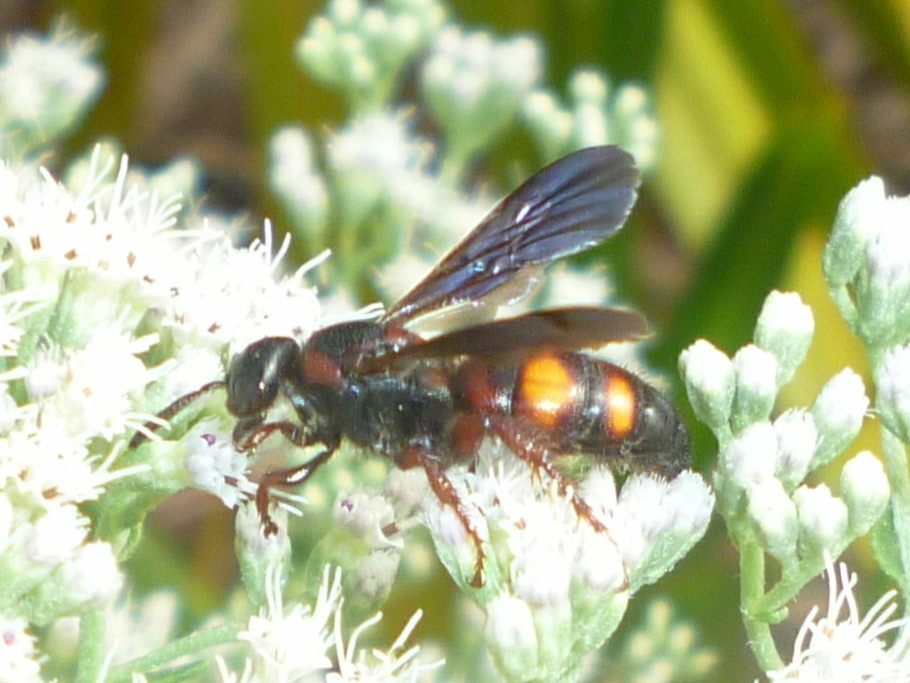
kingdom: Animalia
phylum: Arthropoda
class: Insecta
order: Hymenoptera
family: Scoliidae
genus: Scolia
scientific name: Scolia nobilitata
